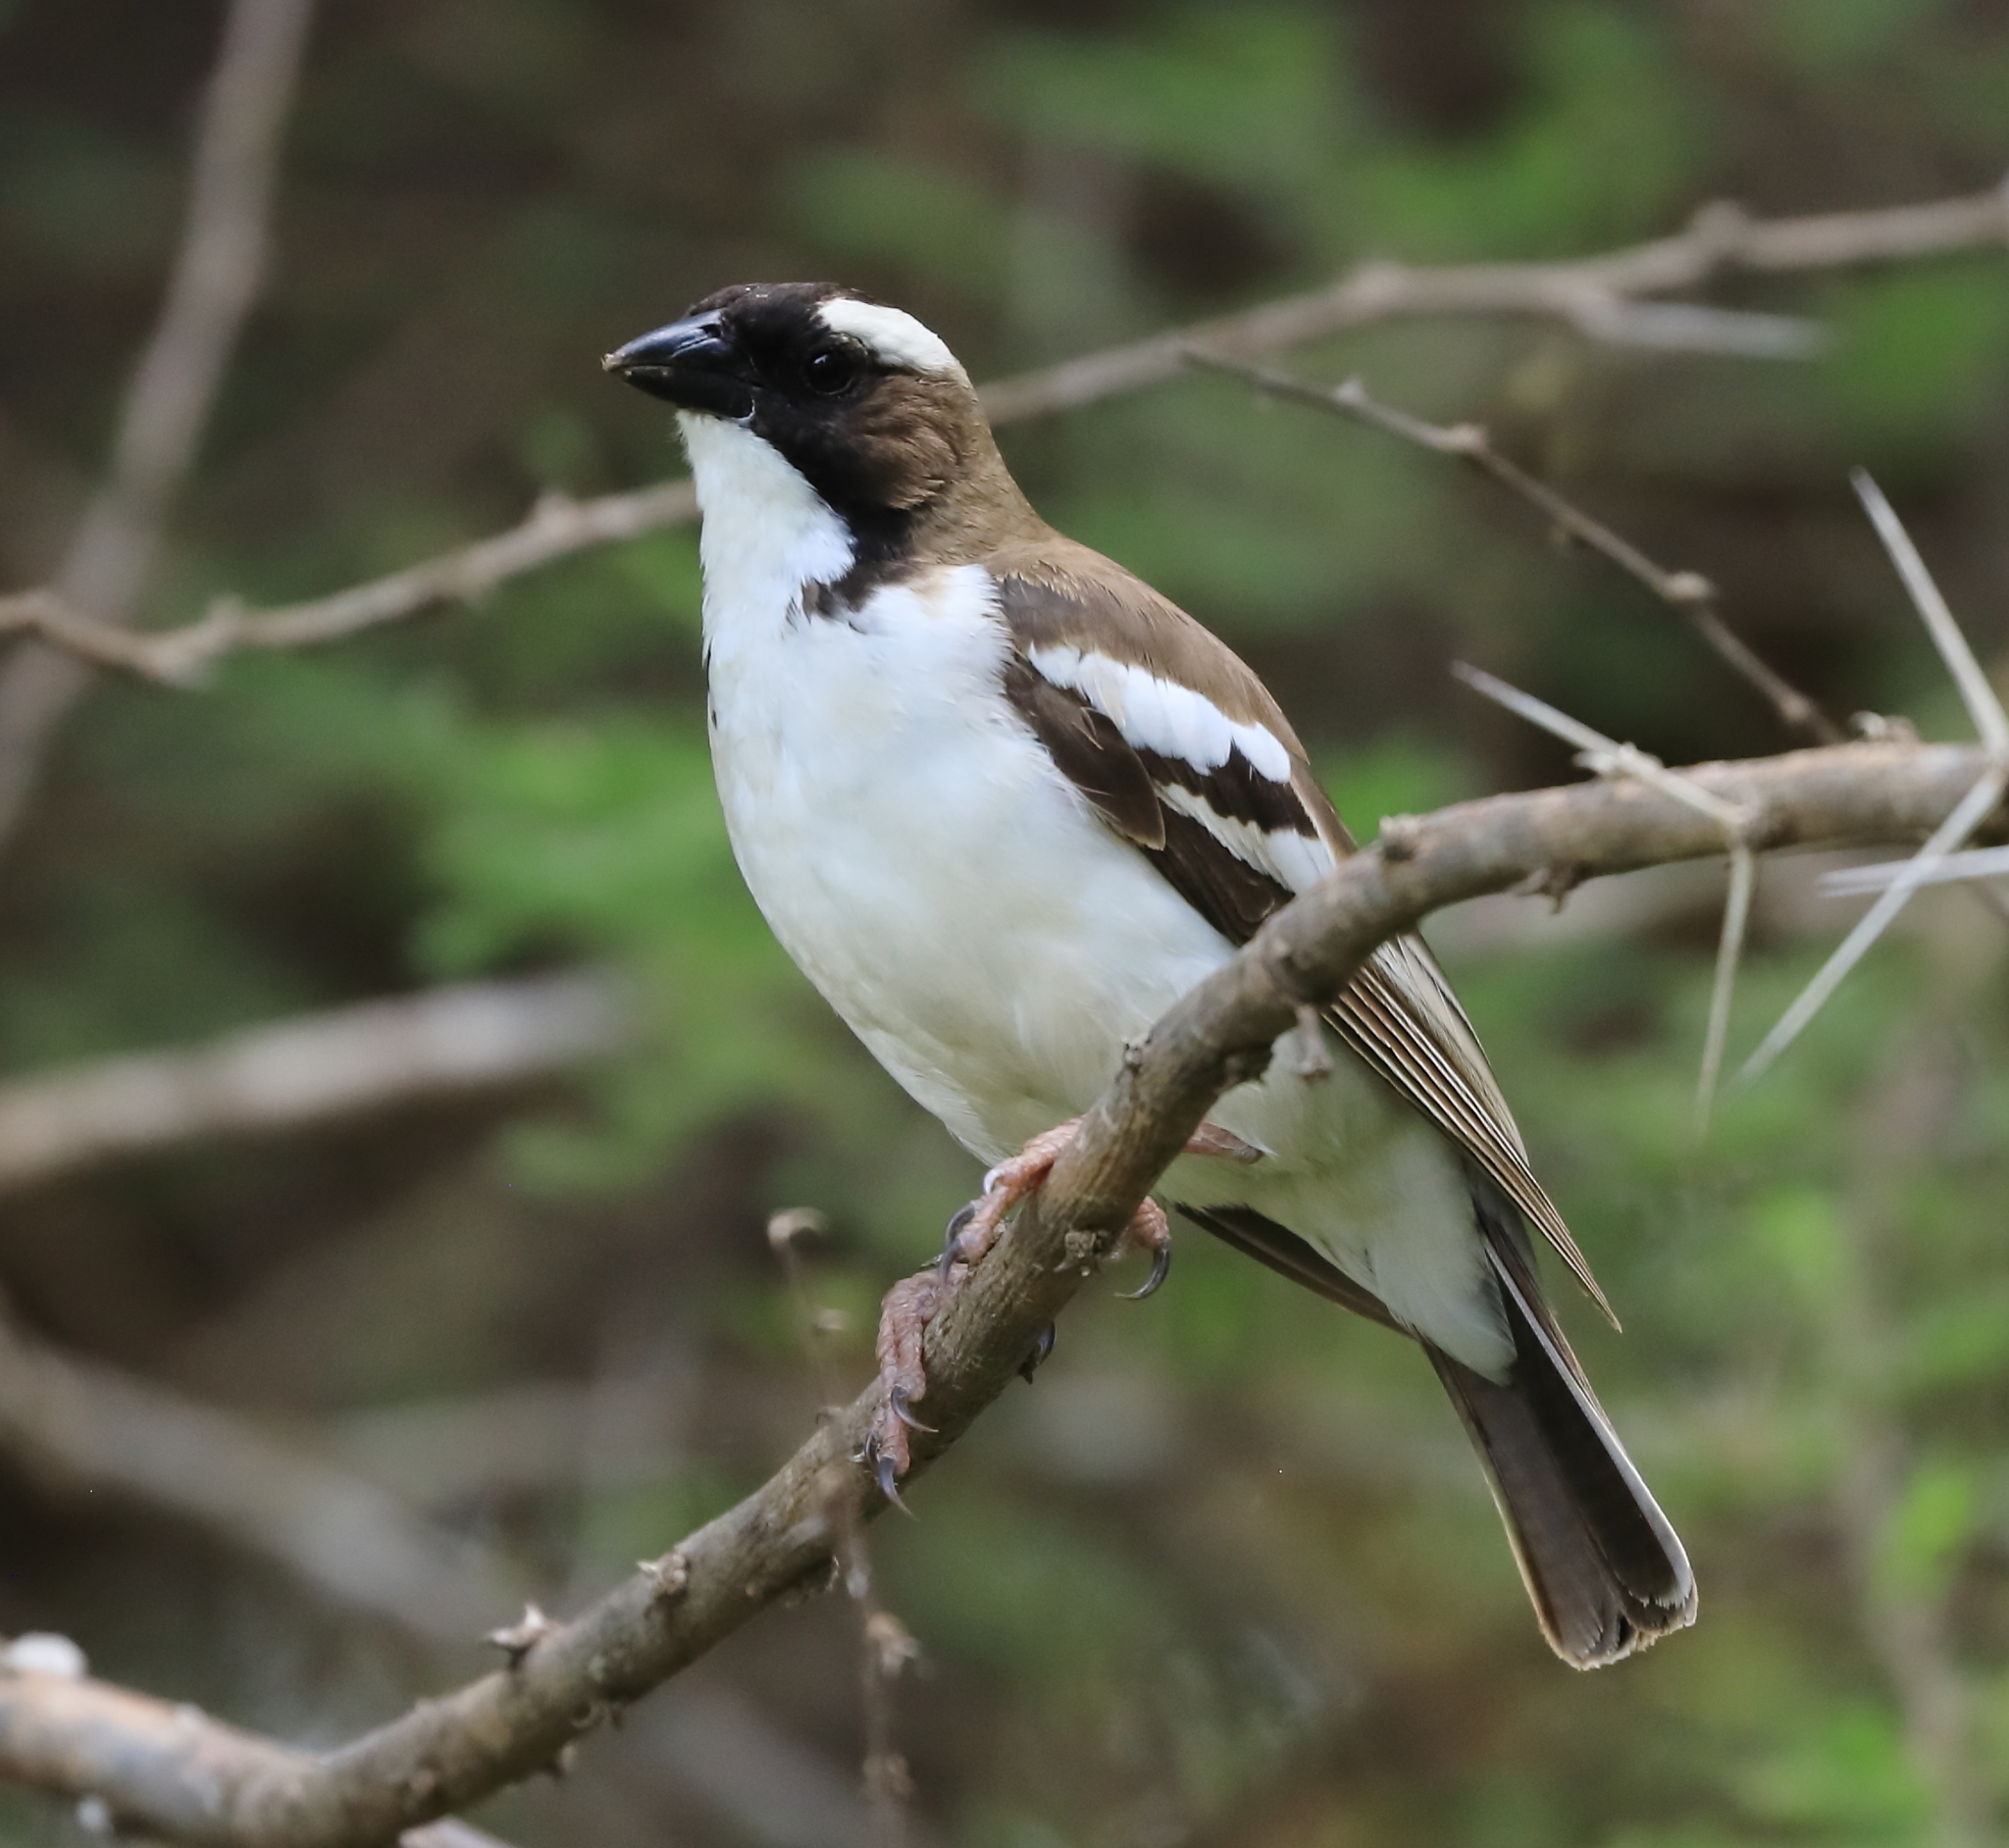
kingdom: Animalia
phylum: Chordata
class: Aves
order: Passeriformes
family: Passeridae
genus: Plocepasser
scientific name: Plocepasser mahali
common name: White-browed sparrow-weaver
